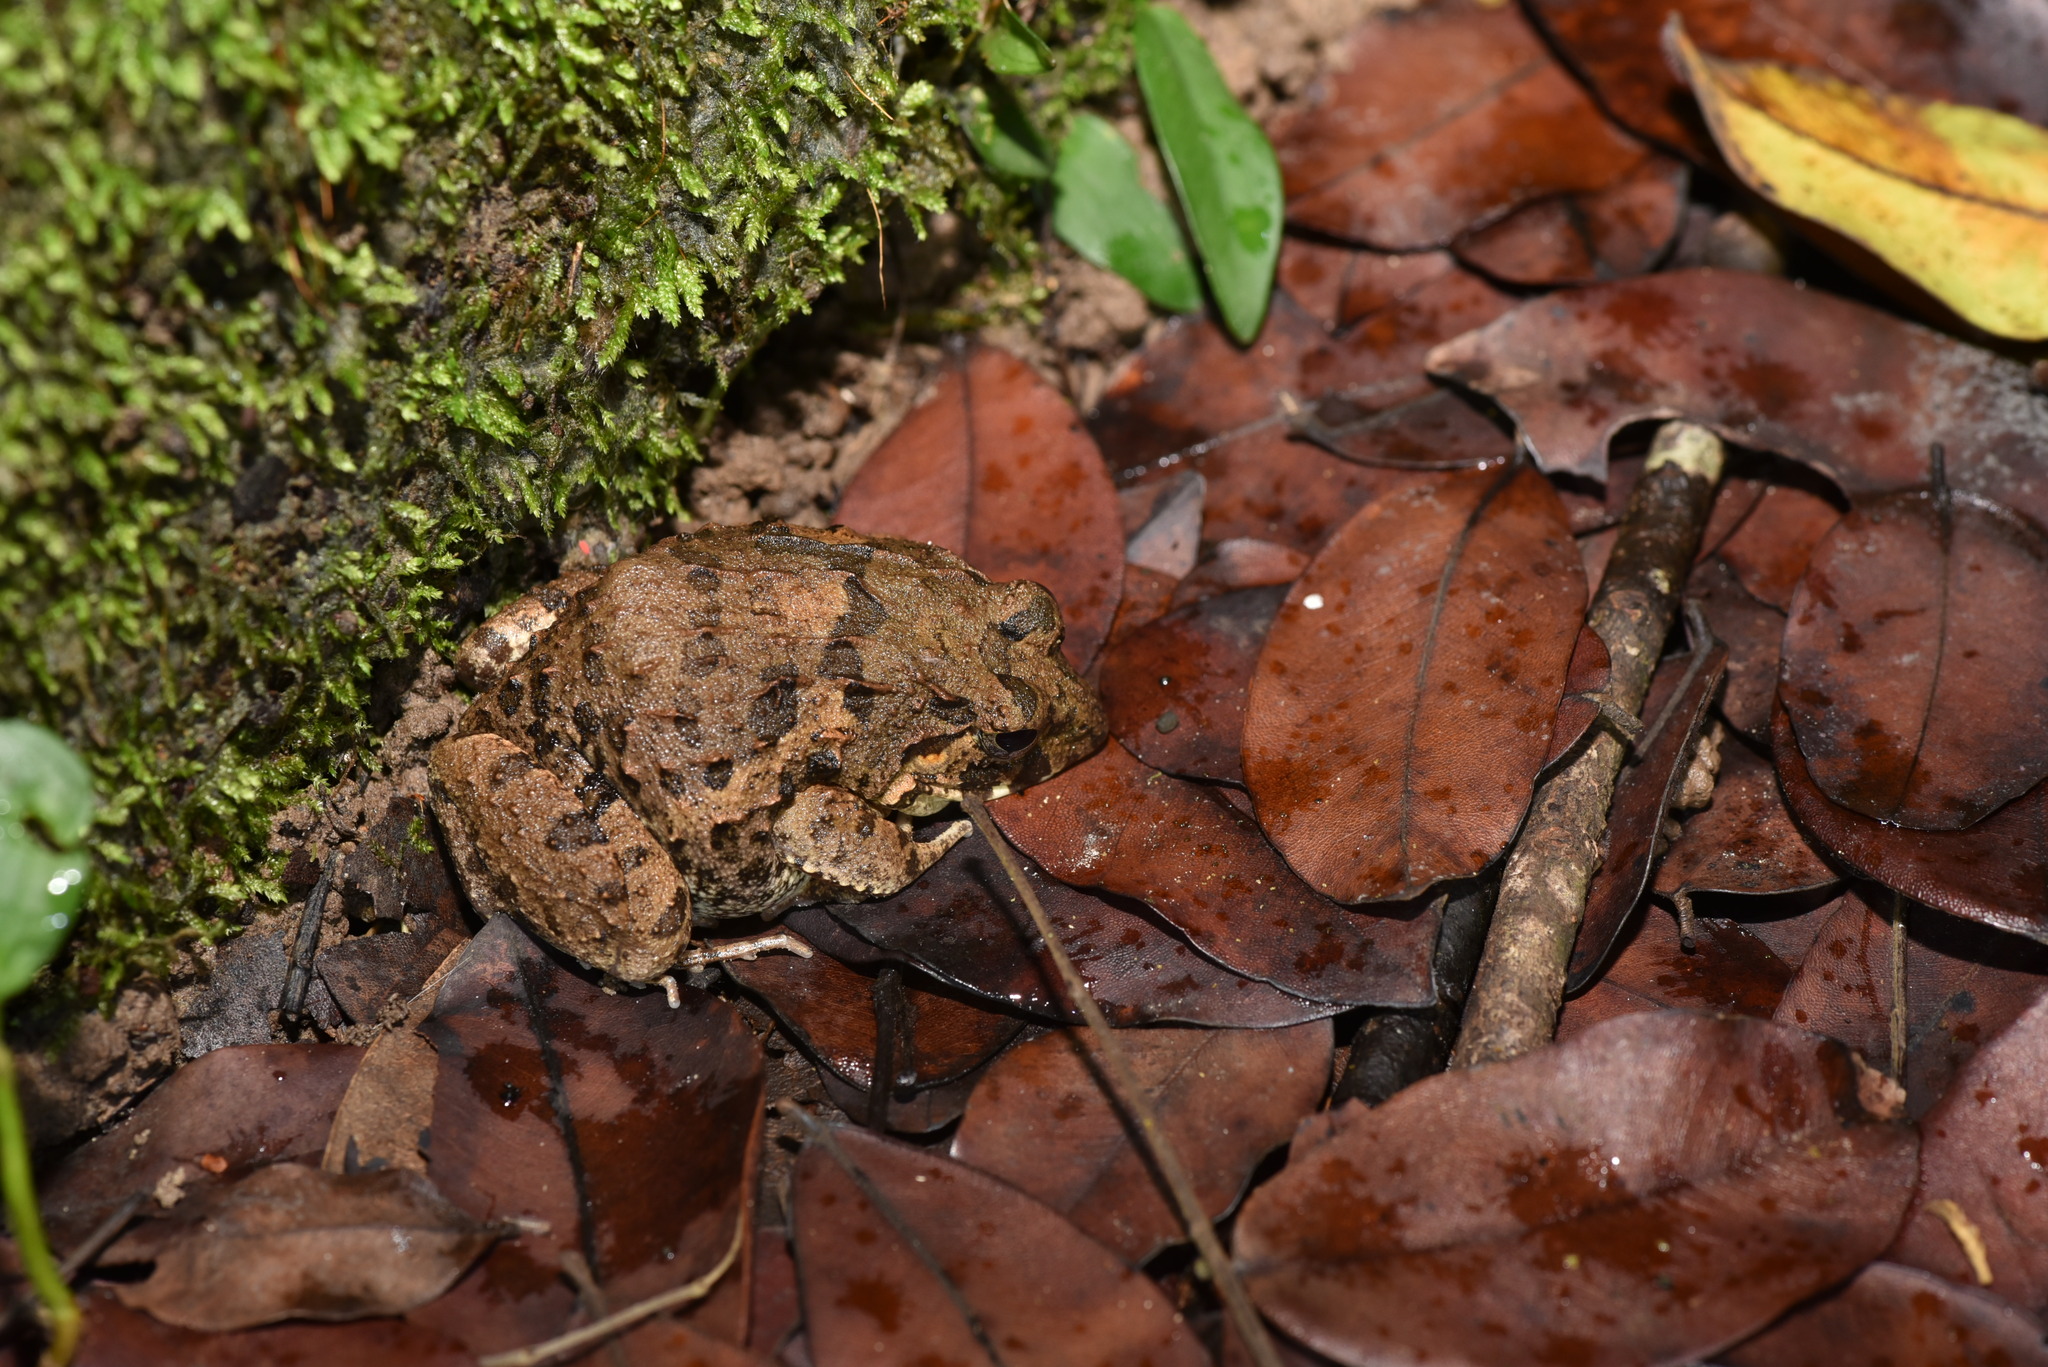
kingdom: Animalia
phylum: Chordata
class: Amphibia
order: Anura
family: Dicroglossidae
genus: Fejervarya
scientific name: Fejervarya limnocharis
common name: Asian grass frog/common pond frog/field frog/grass frog/indian rice frog
